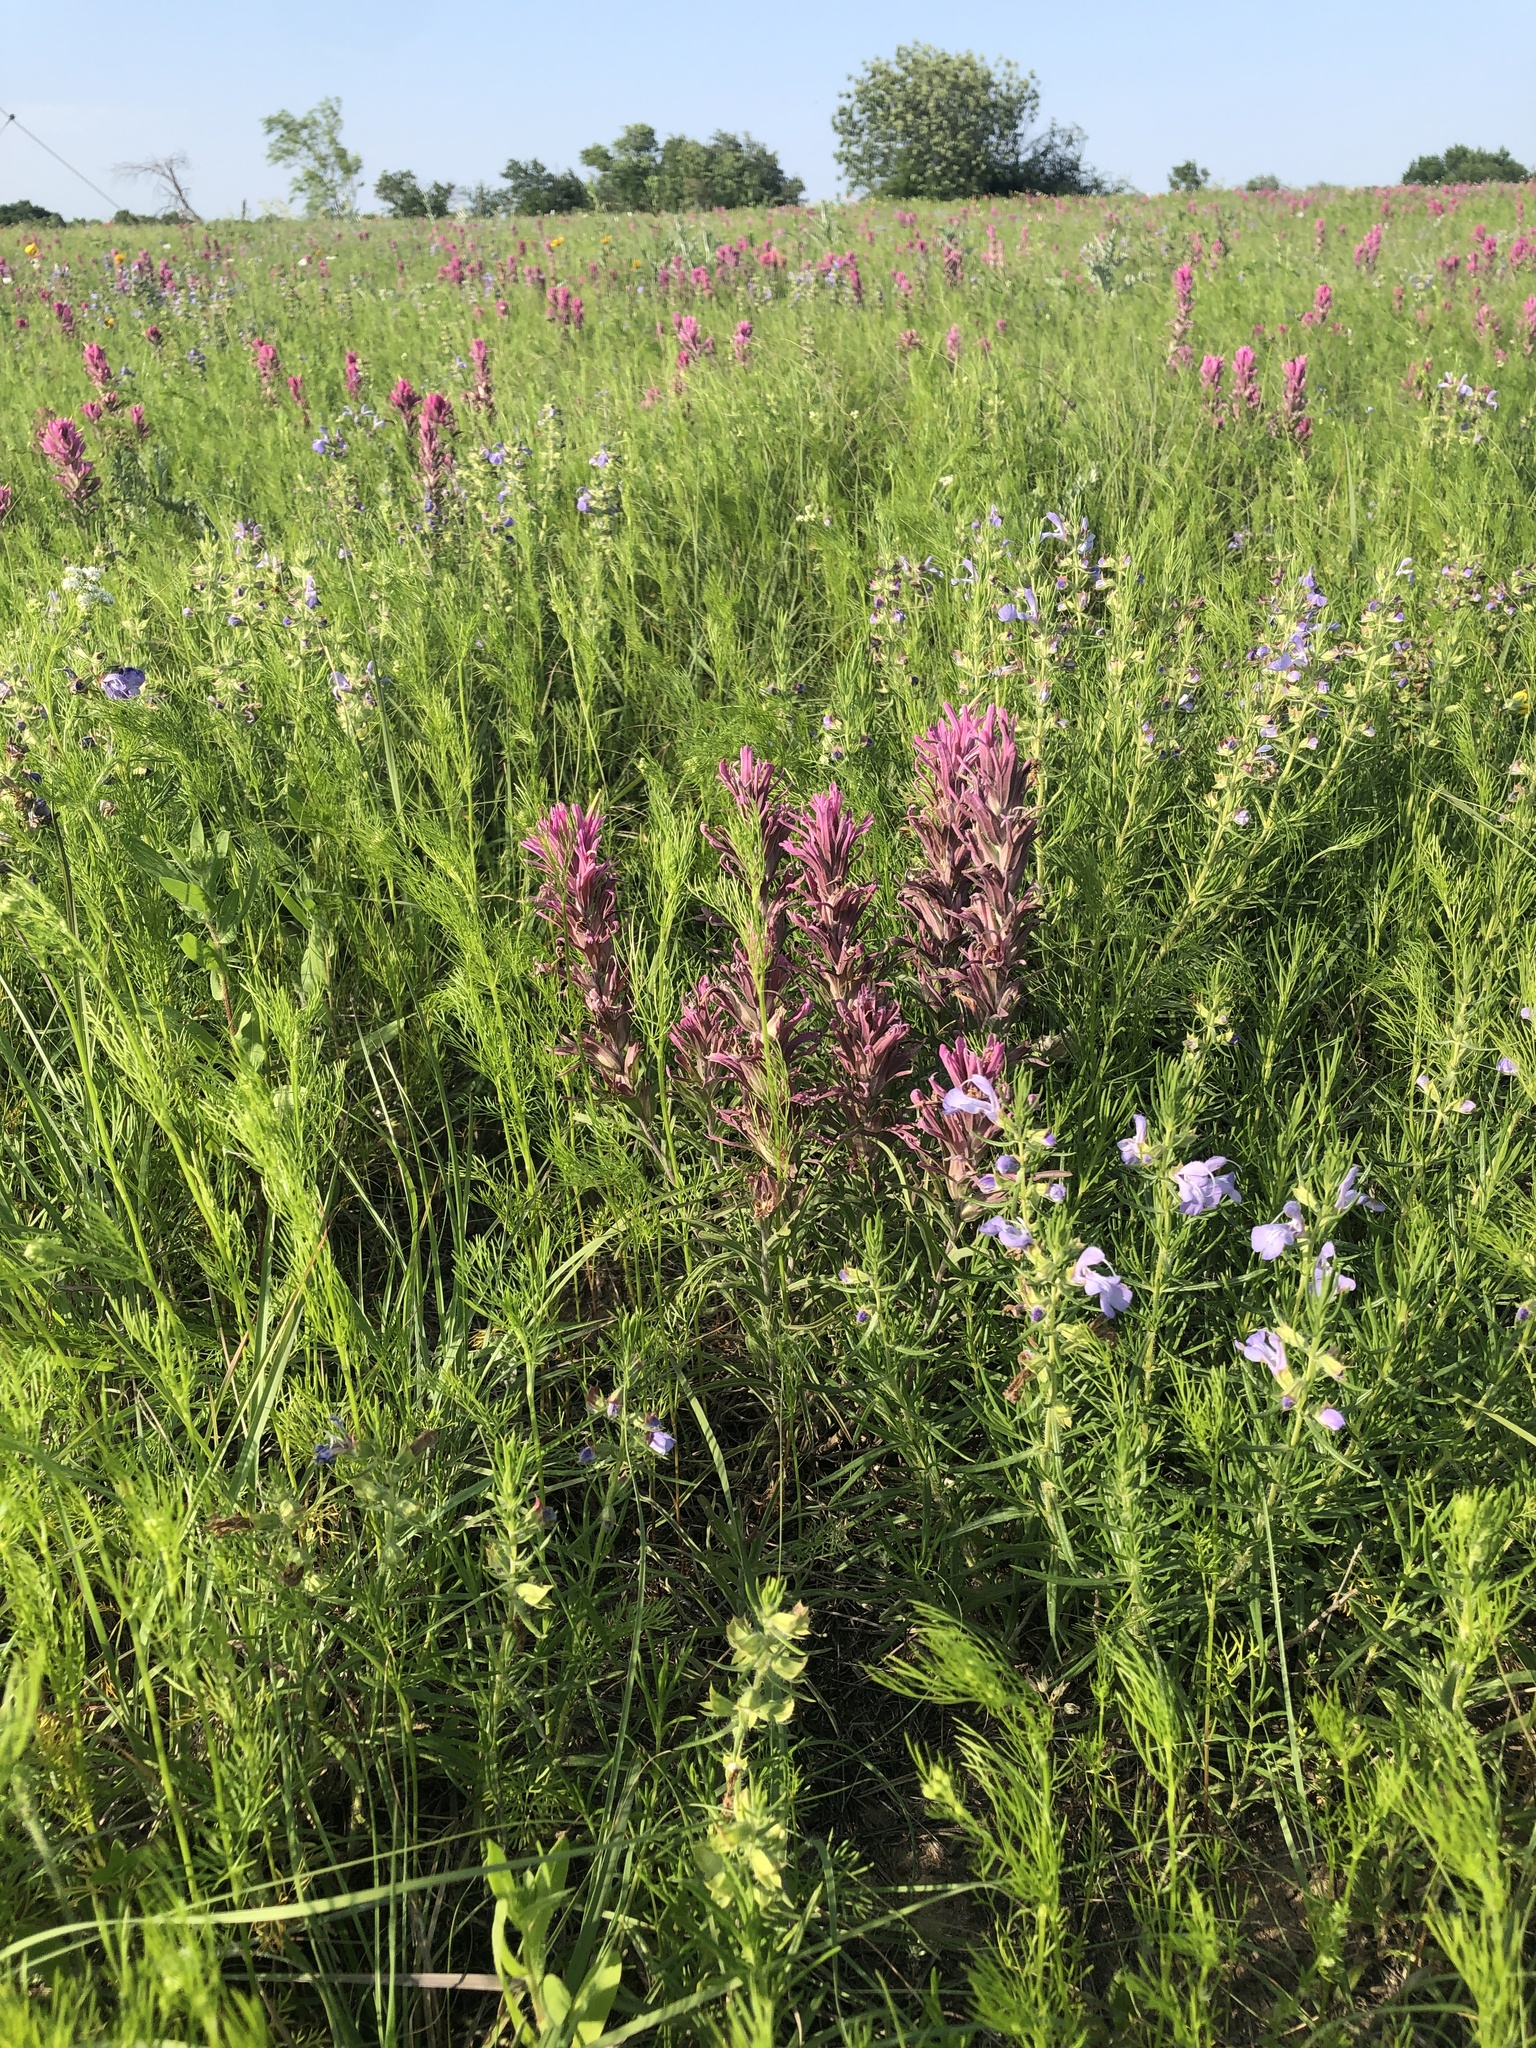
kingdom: Plantae
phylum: Tracheophyta
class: Magnoliopsida
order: Lamiales
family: Orobanchaceae
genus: Castilleja
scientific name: Castilleja purpurea
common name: Plains paintbrush
